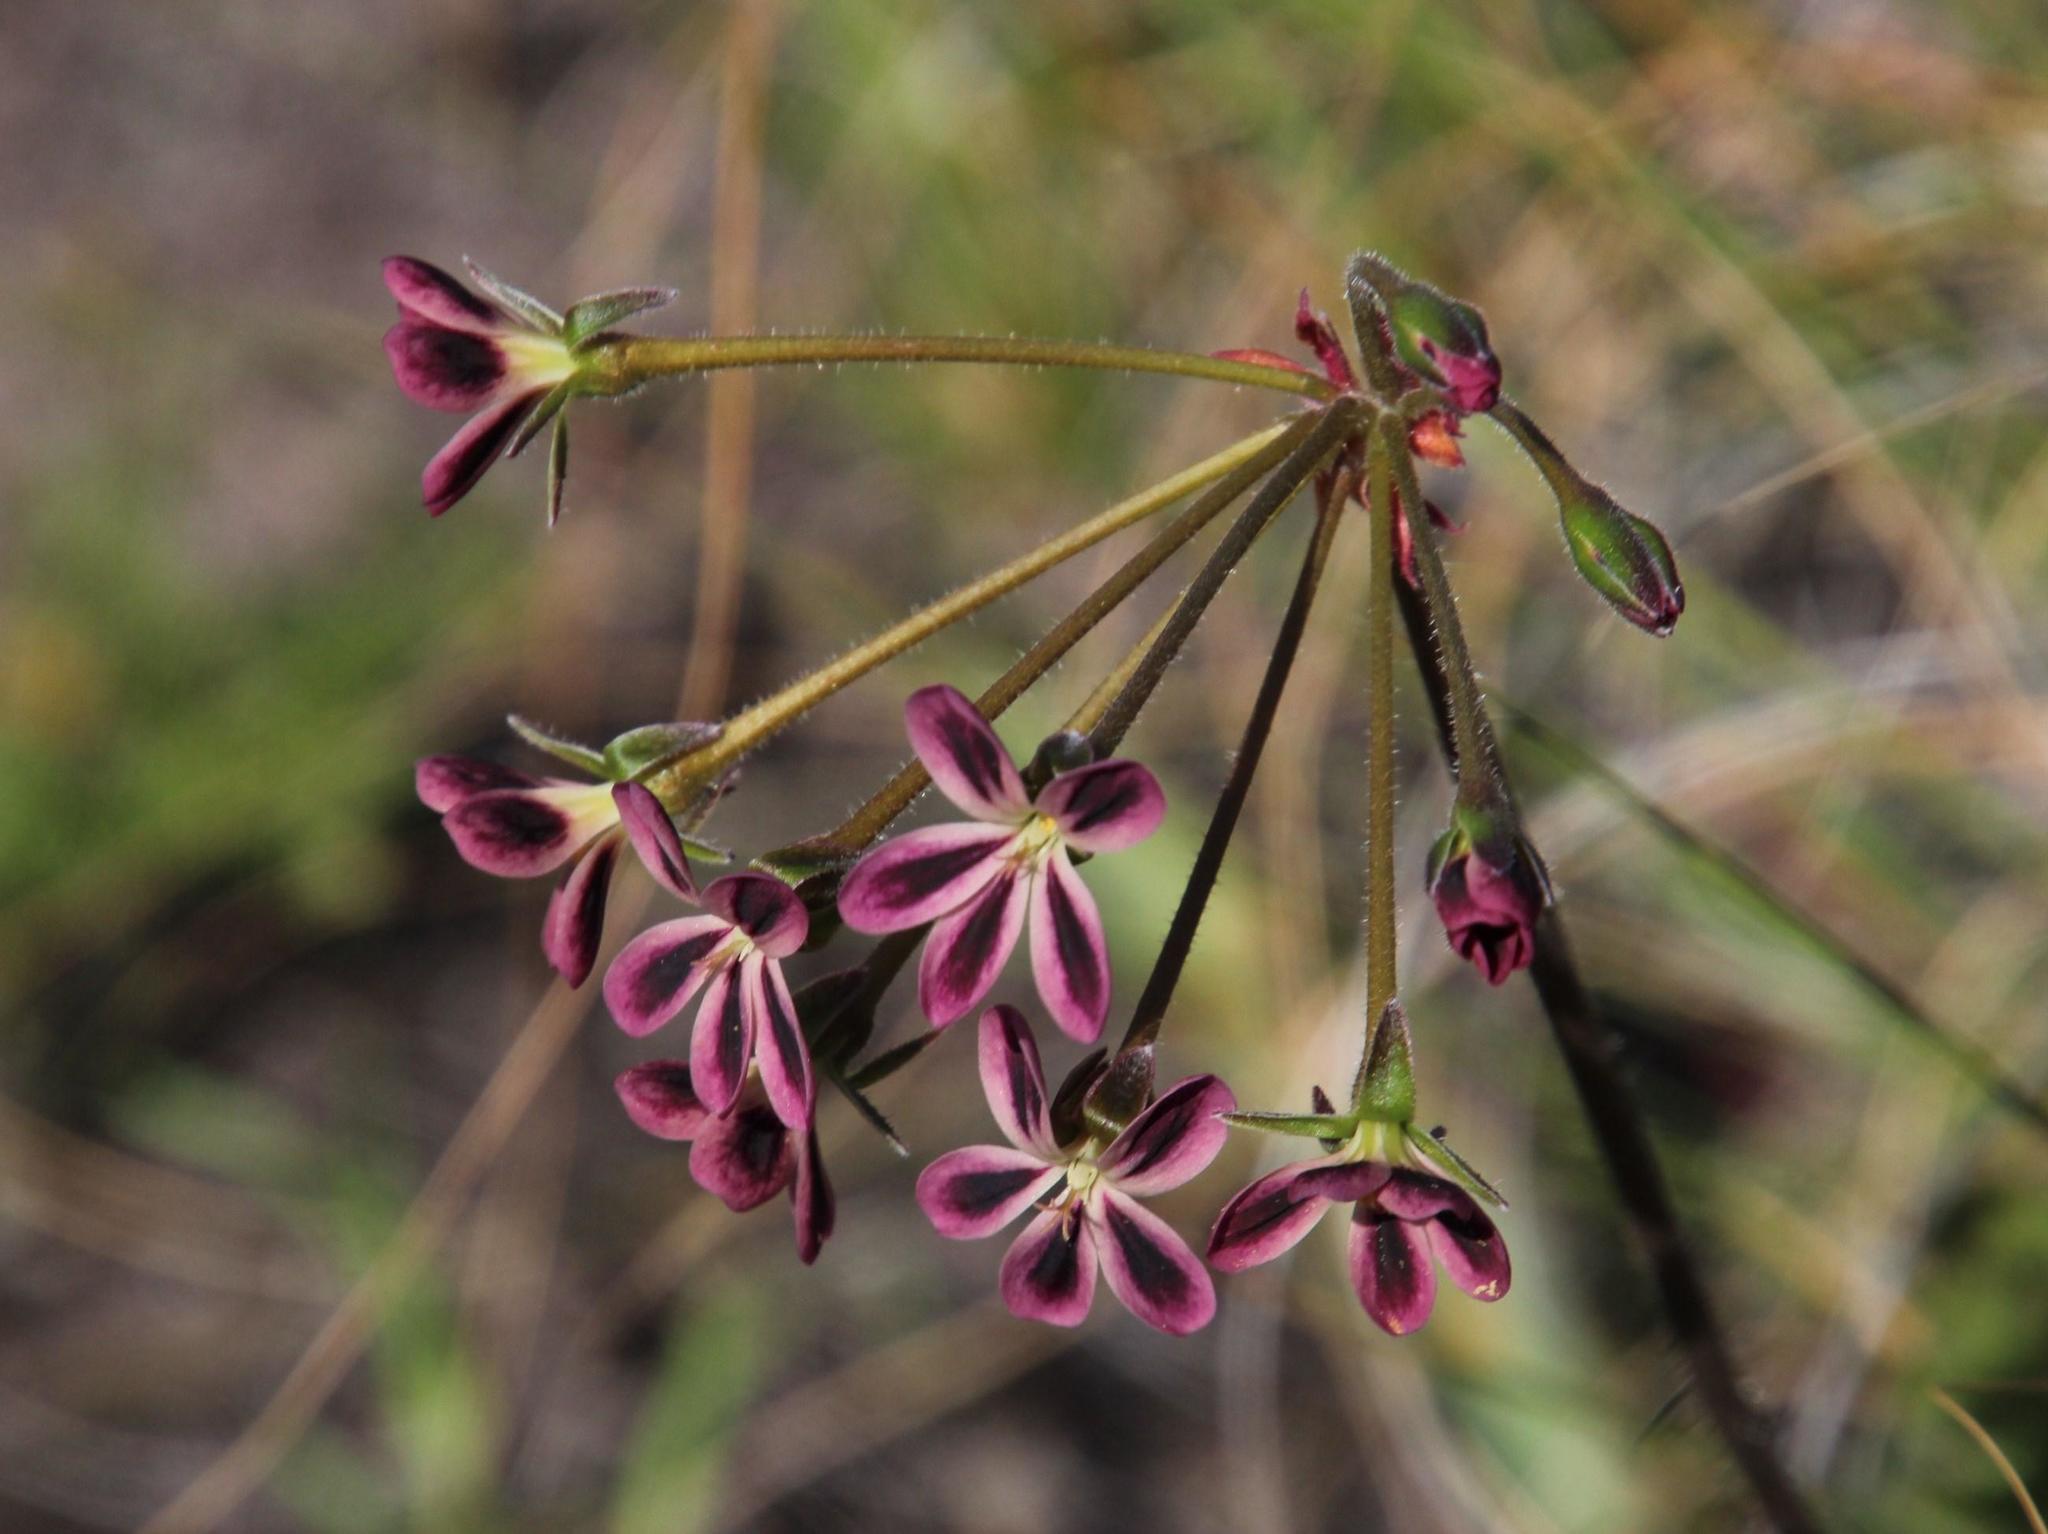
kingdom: Plantae
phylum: Tracheophyta
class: Magnoliopsida
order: Geraniales
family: Geraniaceae
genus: Pelargonium
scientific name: Pelargonium triste
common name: Night-scent pelargonium
